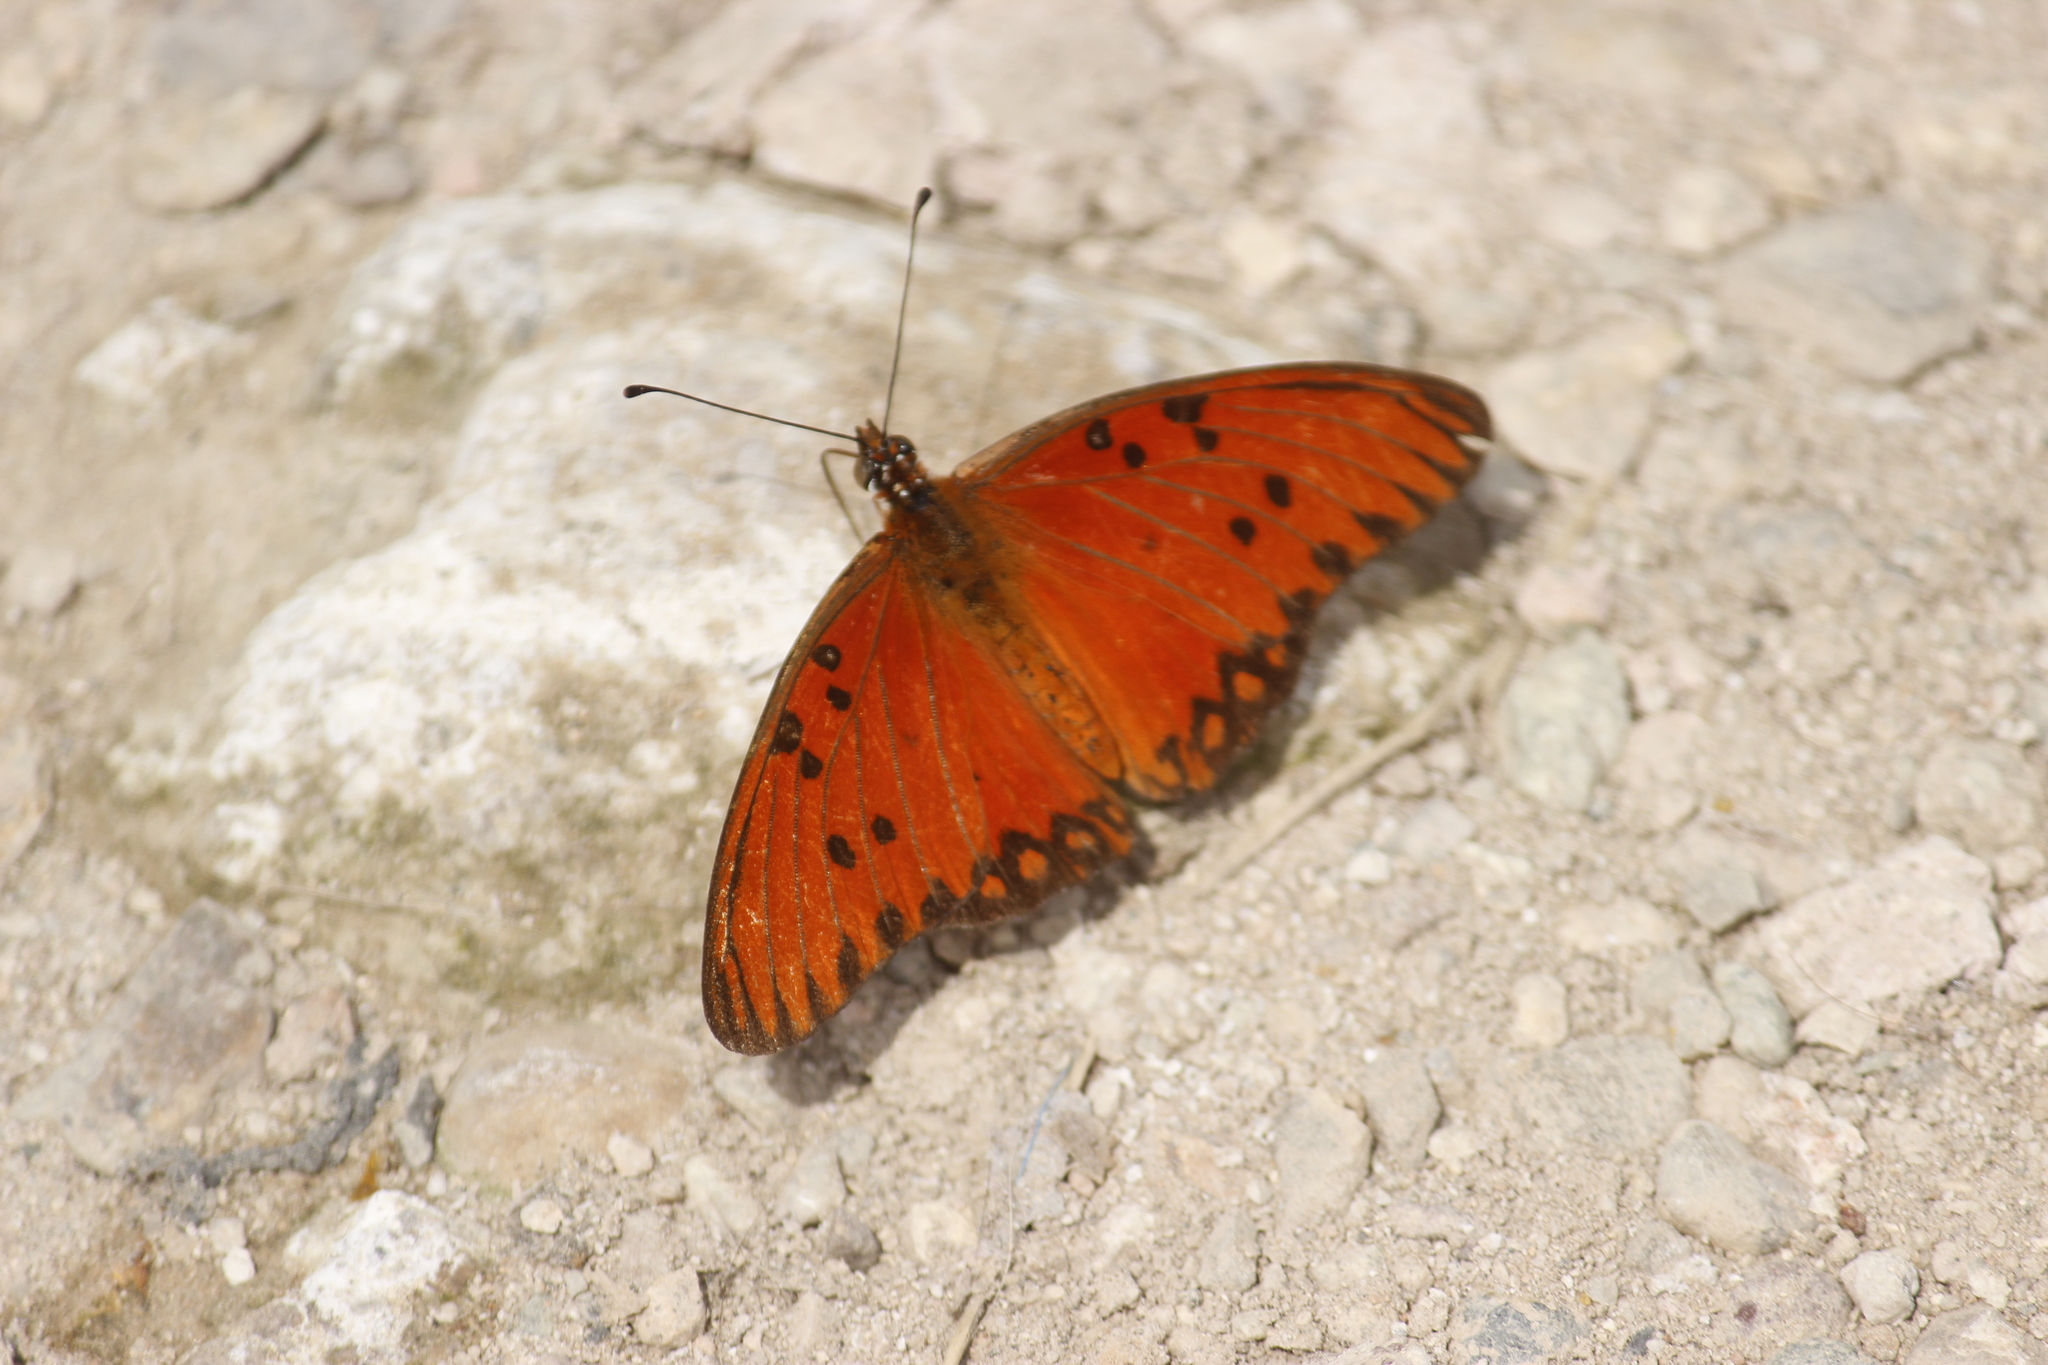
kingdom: Animalia
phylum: Arthropoda
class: Insecta
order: Lepidoptera
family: Nymphalidae
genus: Dione
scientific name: Dione vanillae
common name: Gulf fritillary
